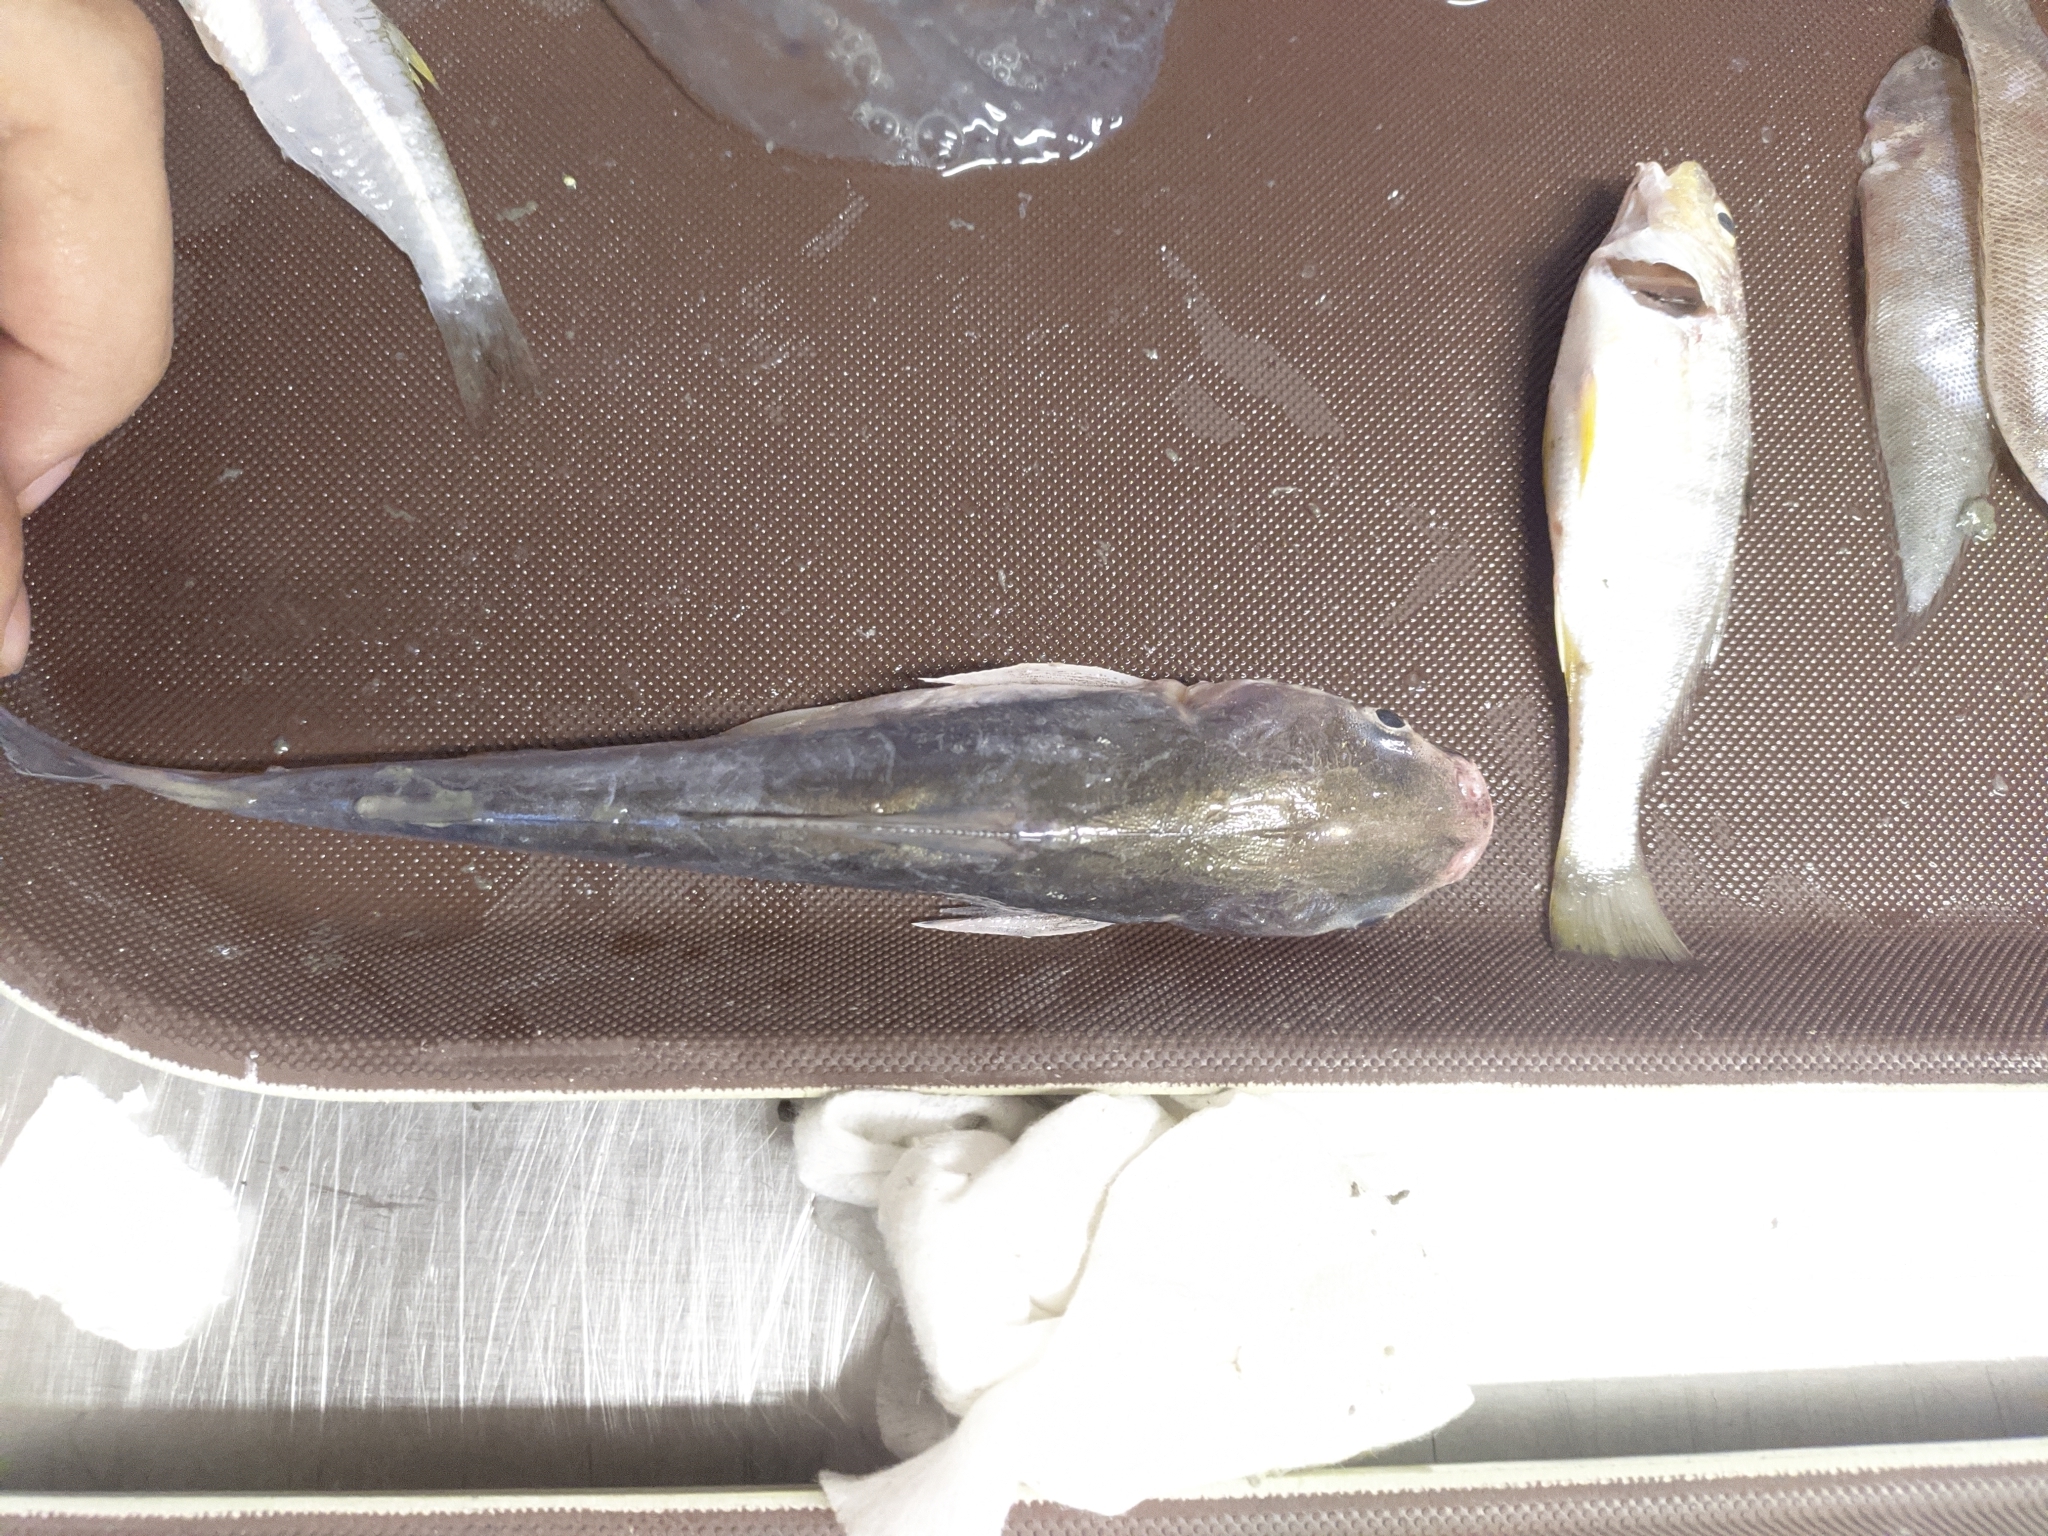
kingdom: Animalia
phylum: Chordata
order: Siluriformes
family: Ariidae
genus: Cathorops
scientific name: Cathorops mapale
